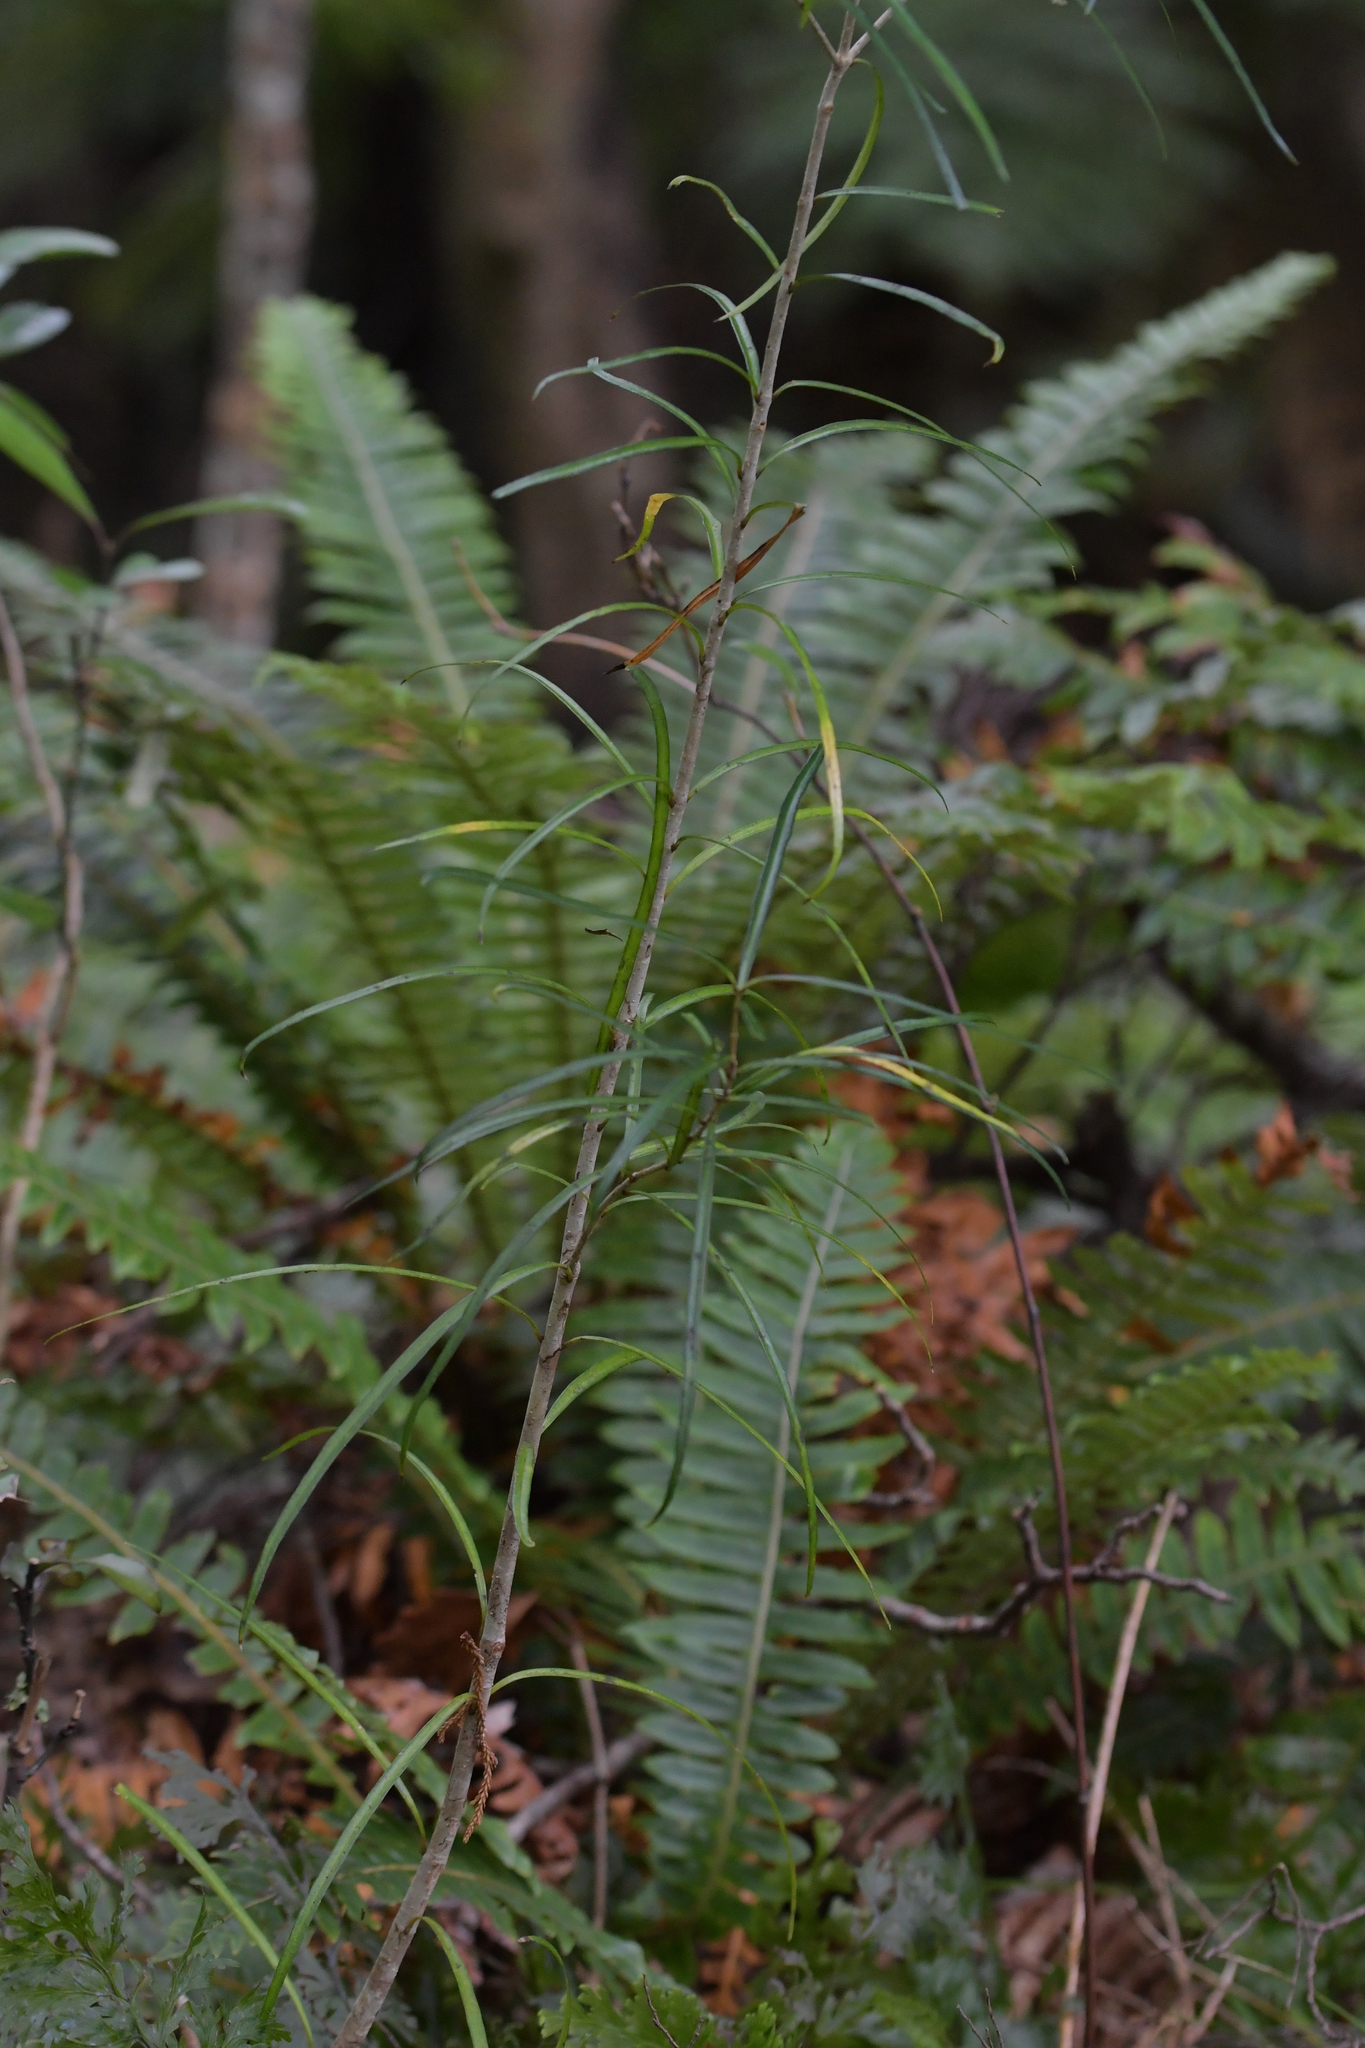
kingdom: Plantae
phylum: Tracheophyta
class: Magnoliopsida
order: Lamiales
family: Oleaceae
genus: Nestegis
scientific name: Nestegis lanceolata
